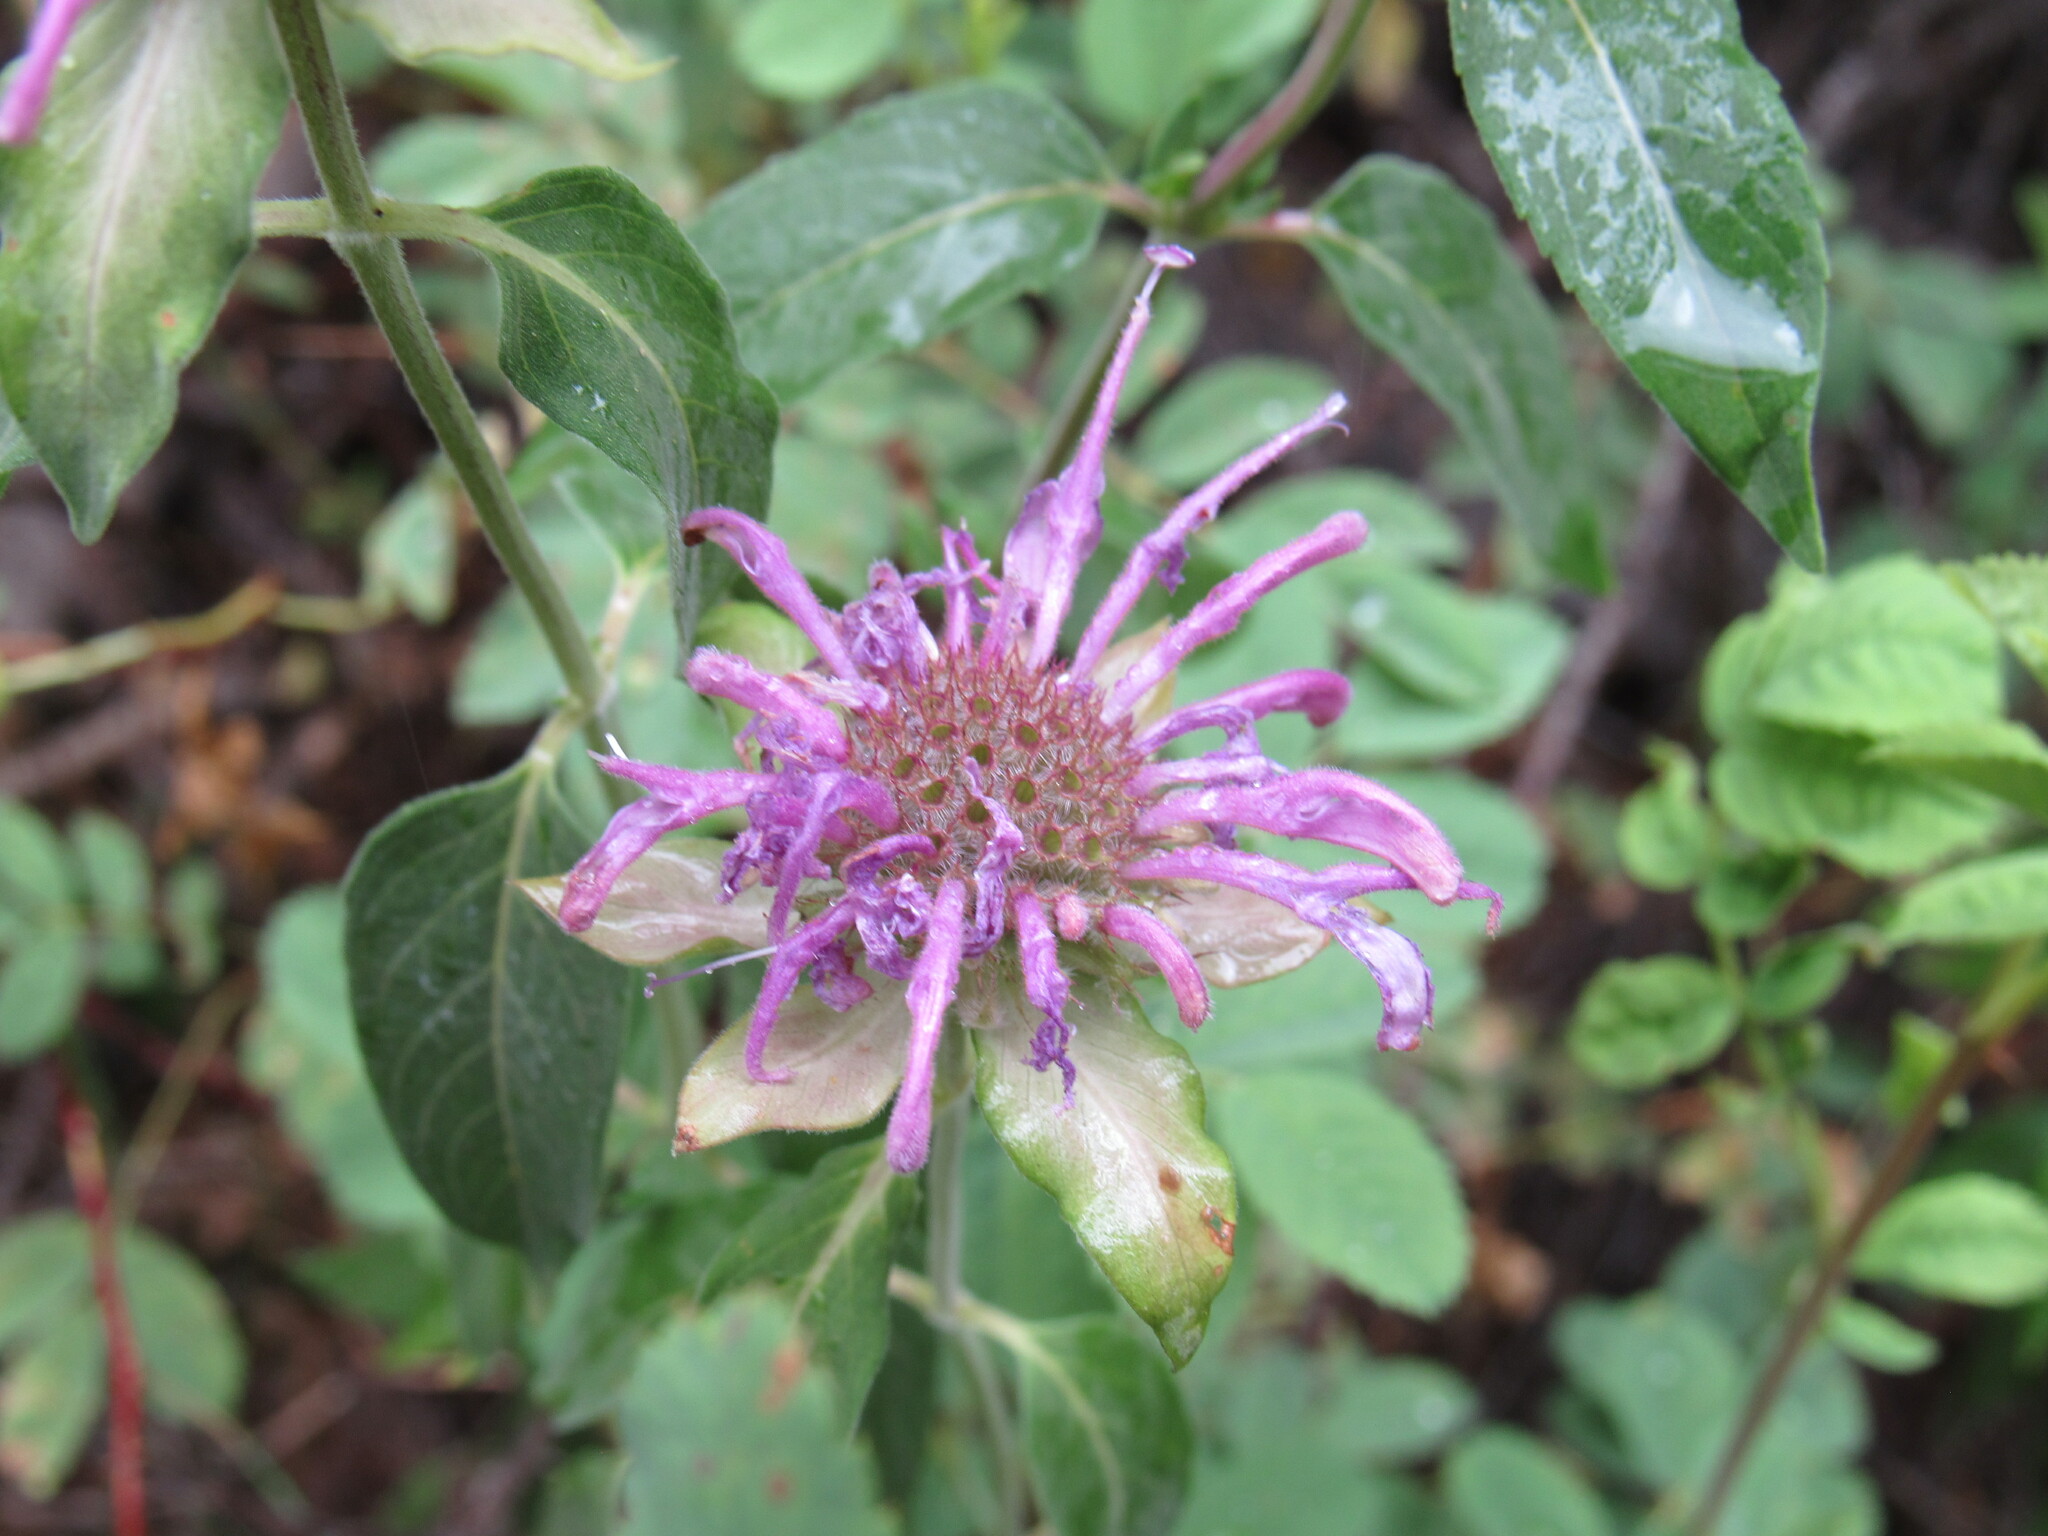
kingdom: Plantae
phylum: Tracheophyta
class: Magnoliopsida
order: Lamiales
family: Lamiaceae
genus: Monarda
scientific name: Monarda fistulosa
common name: Purple beebalm
